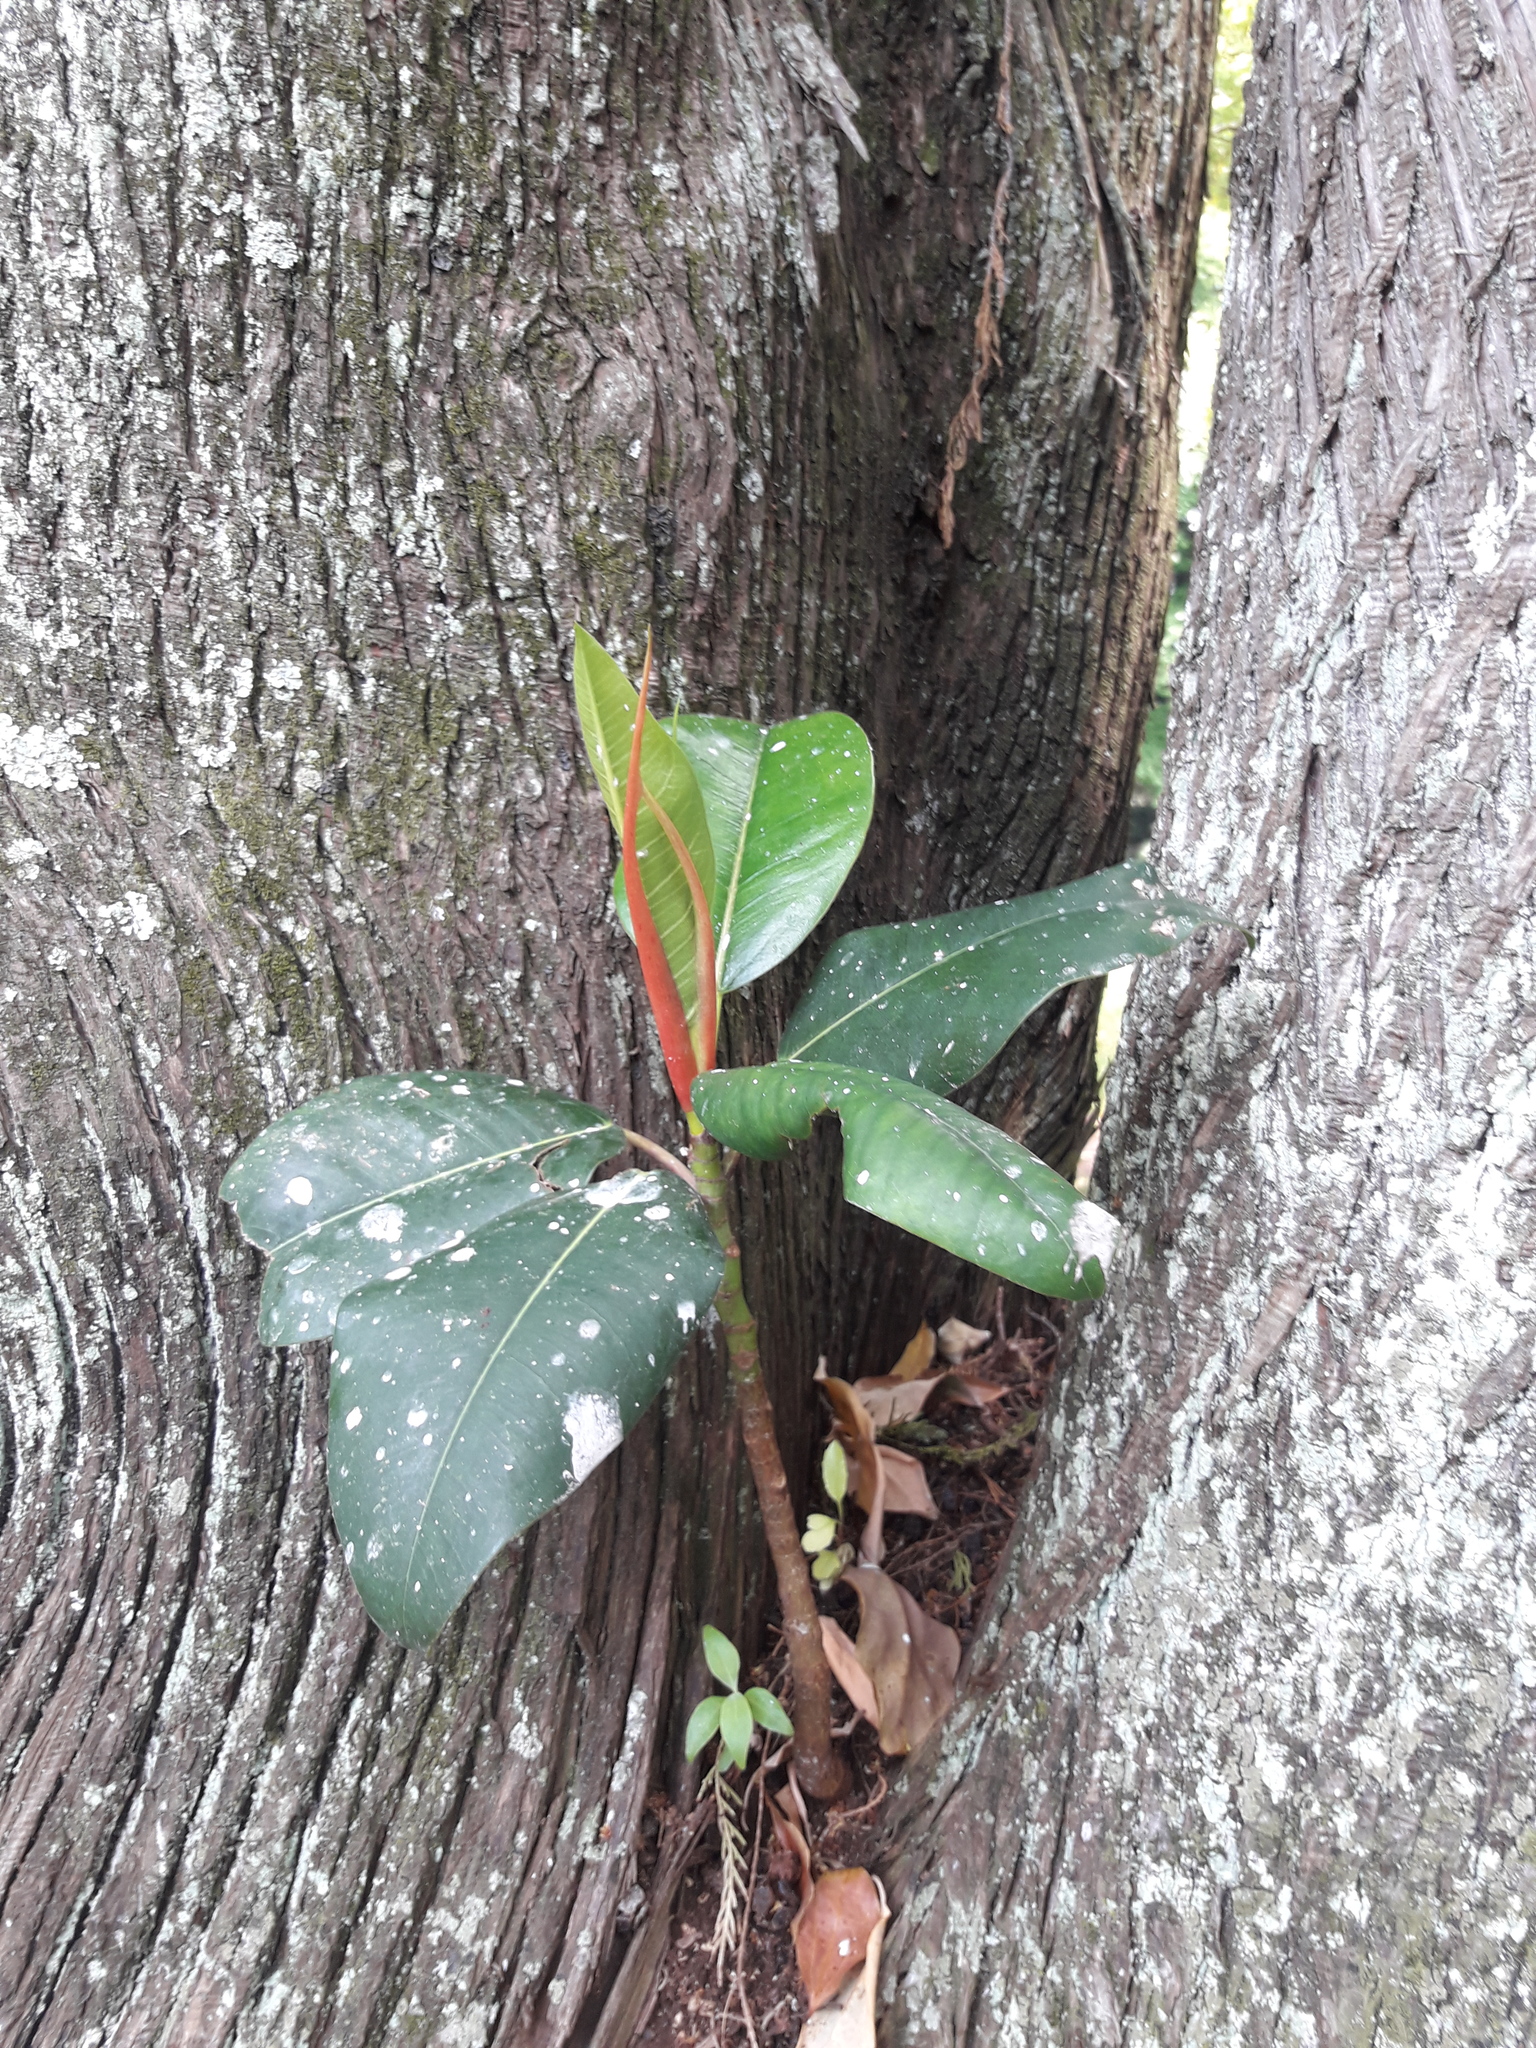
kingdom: Plantae
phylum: Tracheophyta
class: Magnoliopsida
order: Rosales
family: Moraceae
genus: Ficus
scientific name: Ficus macrophylla
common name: Moreton bay fig
